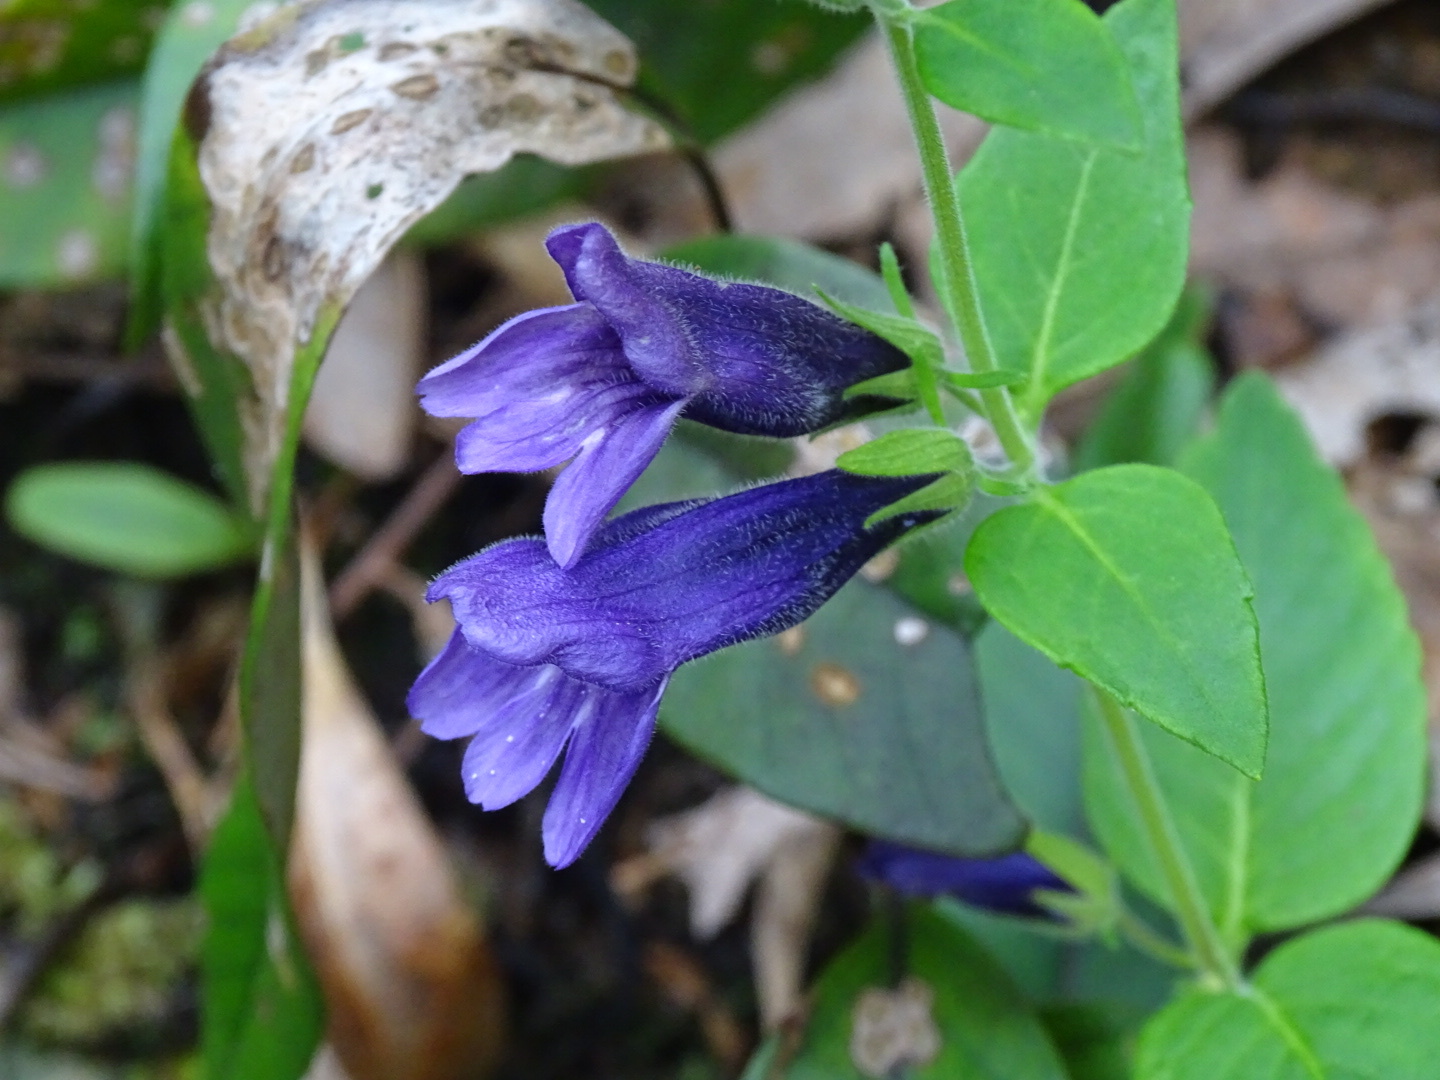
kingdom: Plantae
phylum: Tracheophyta
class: Magnoliopsida
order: Lamiales
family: Plantaginaceae
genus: Adenosma
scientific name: Adenosma glutinosa
